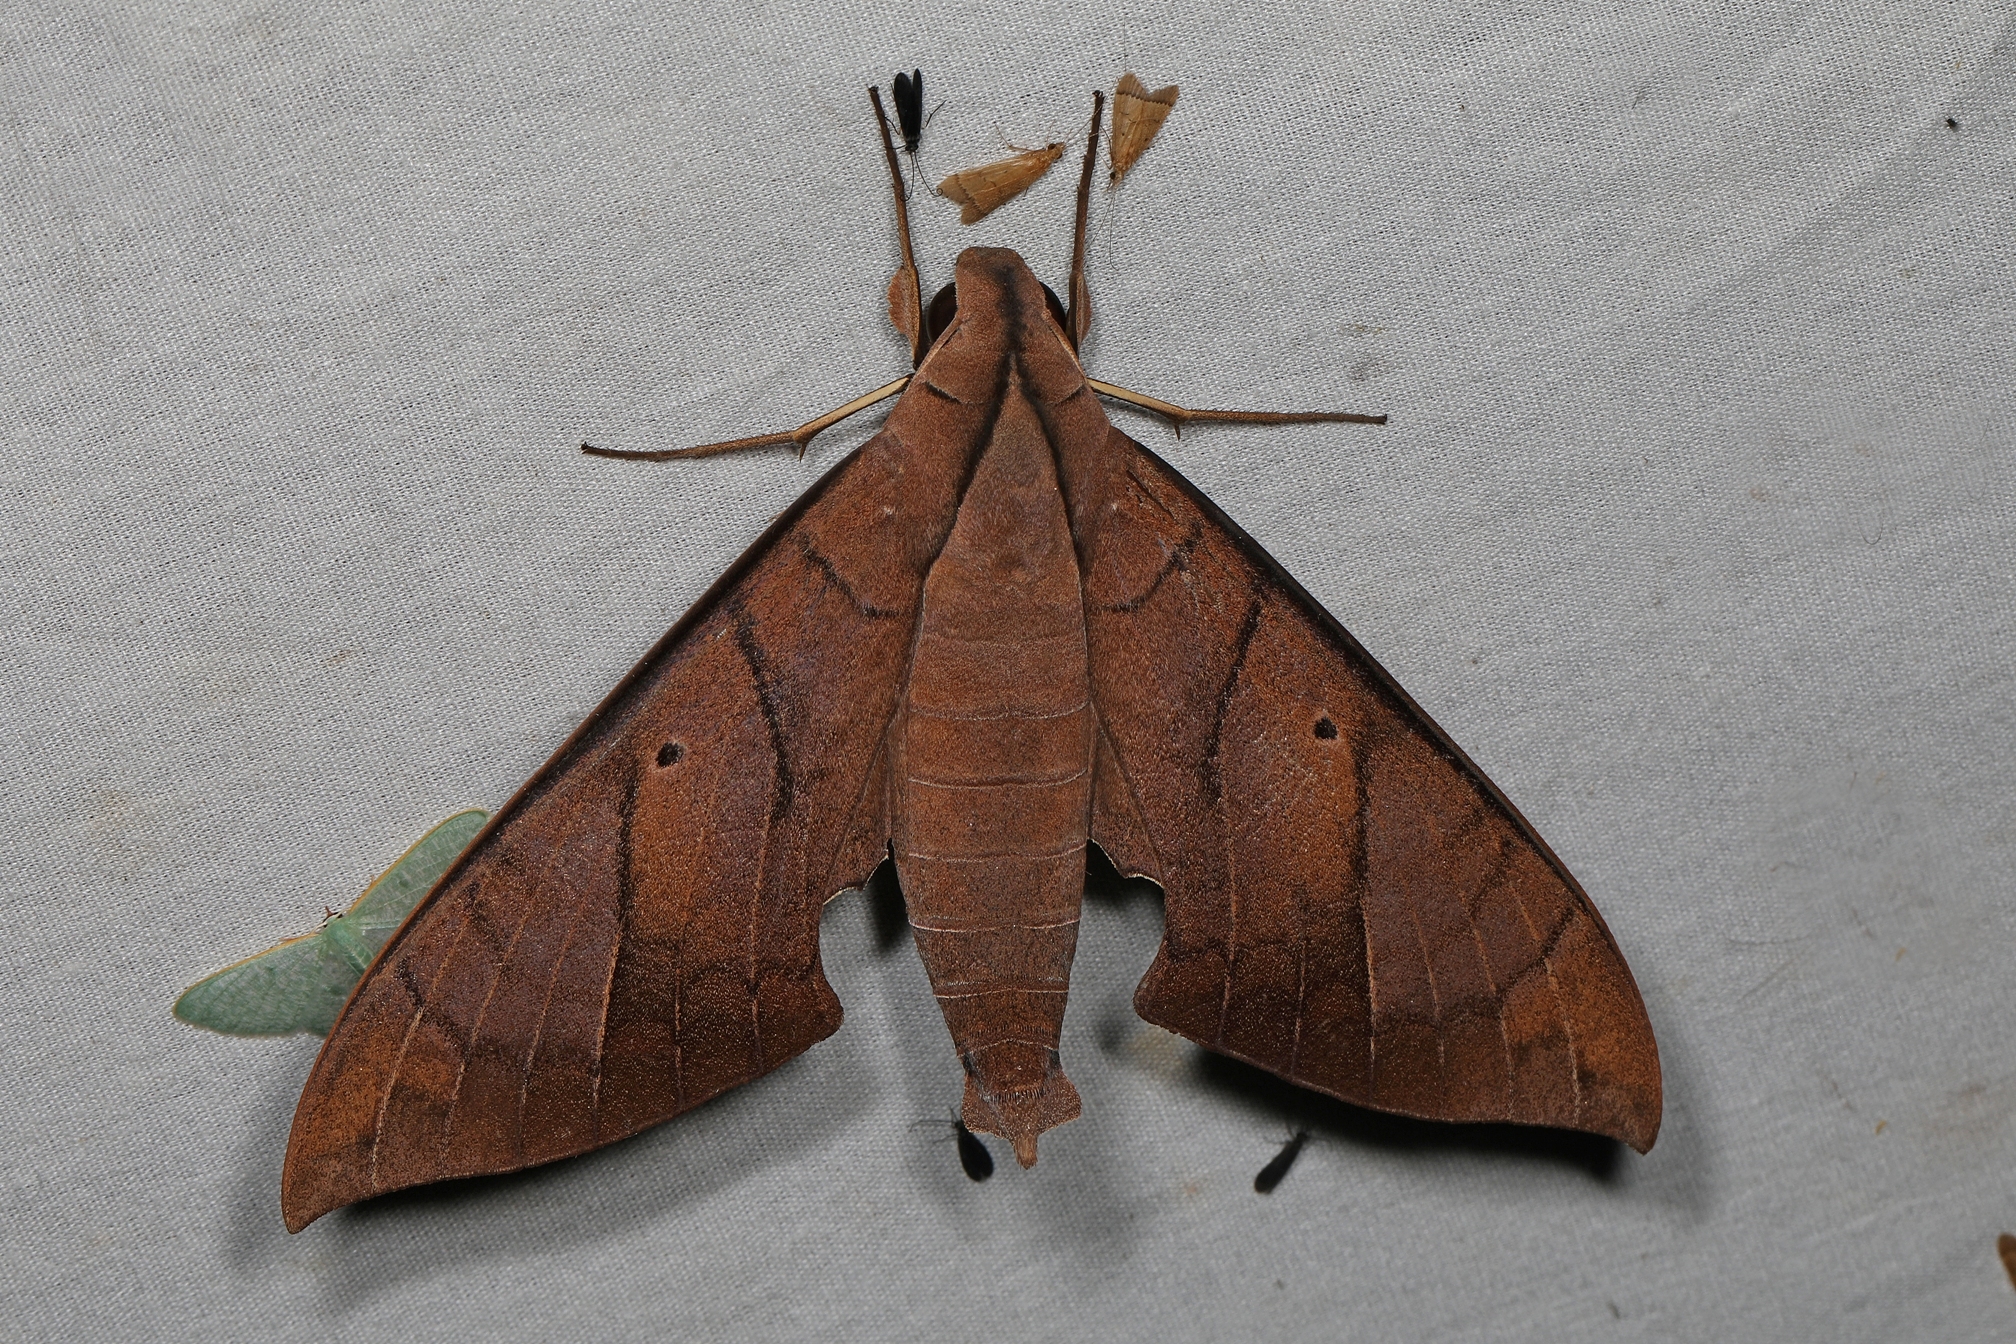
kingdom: Animalia
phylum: Arthropoda
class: Insecta
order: Lepidoptera
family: Sphingidae
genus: Pachylia
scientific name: Pachylia darceta
